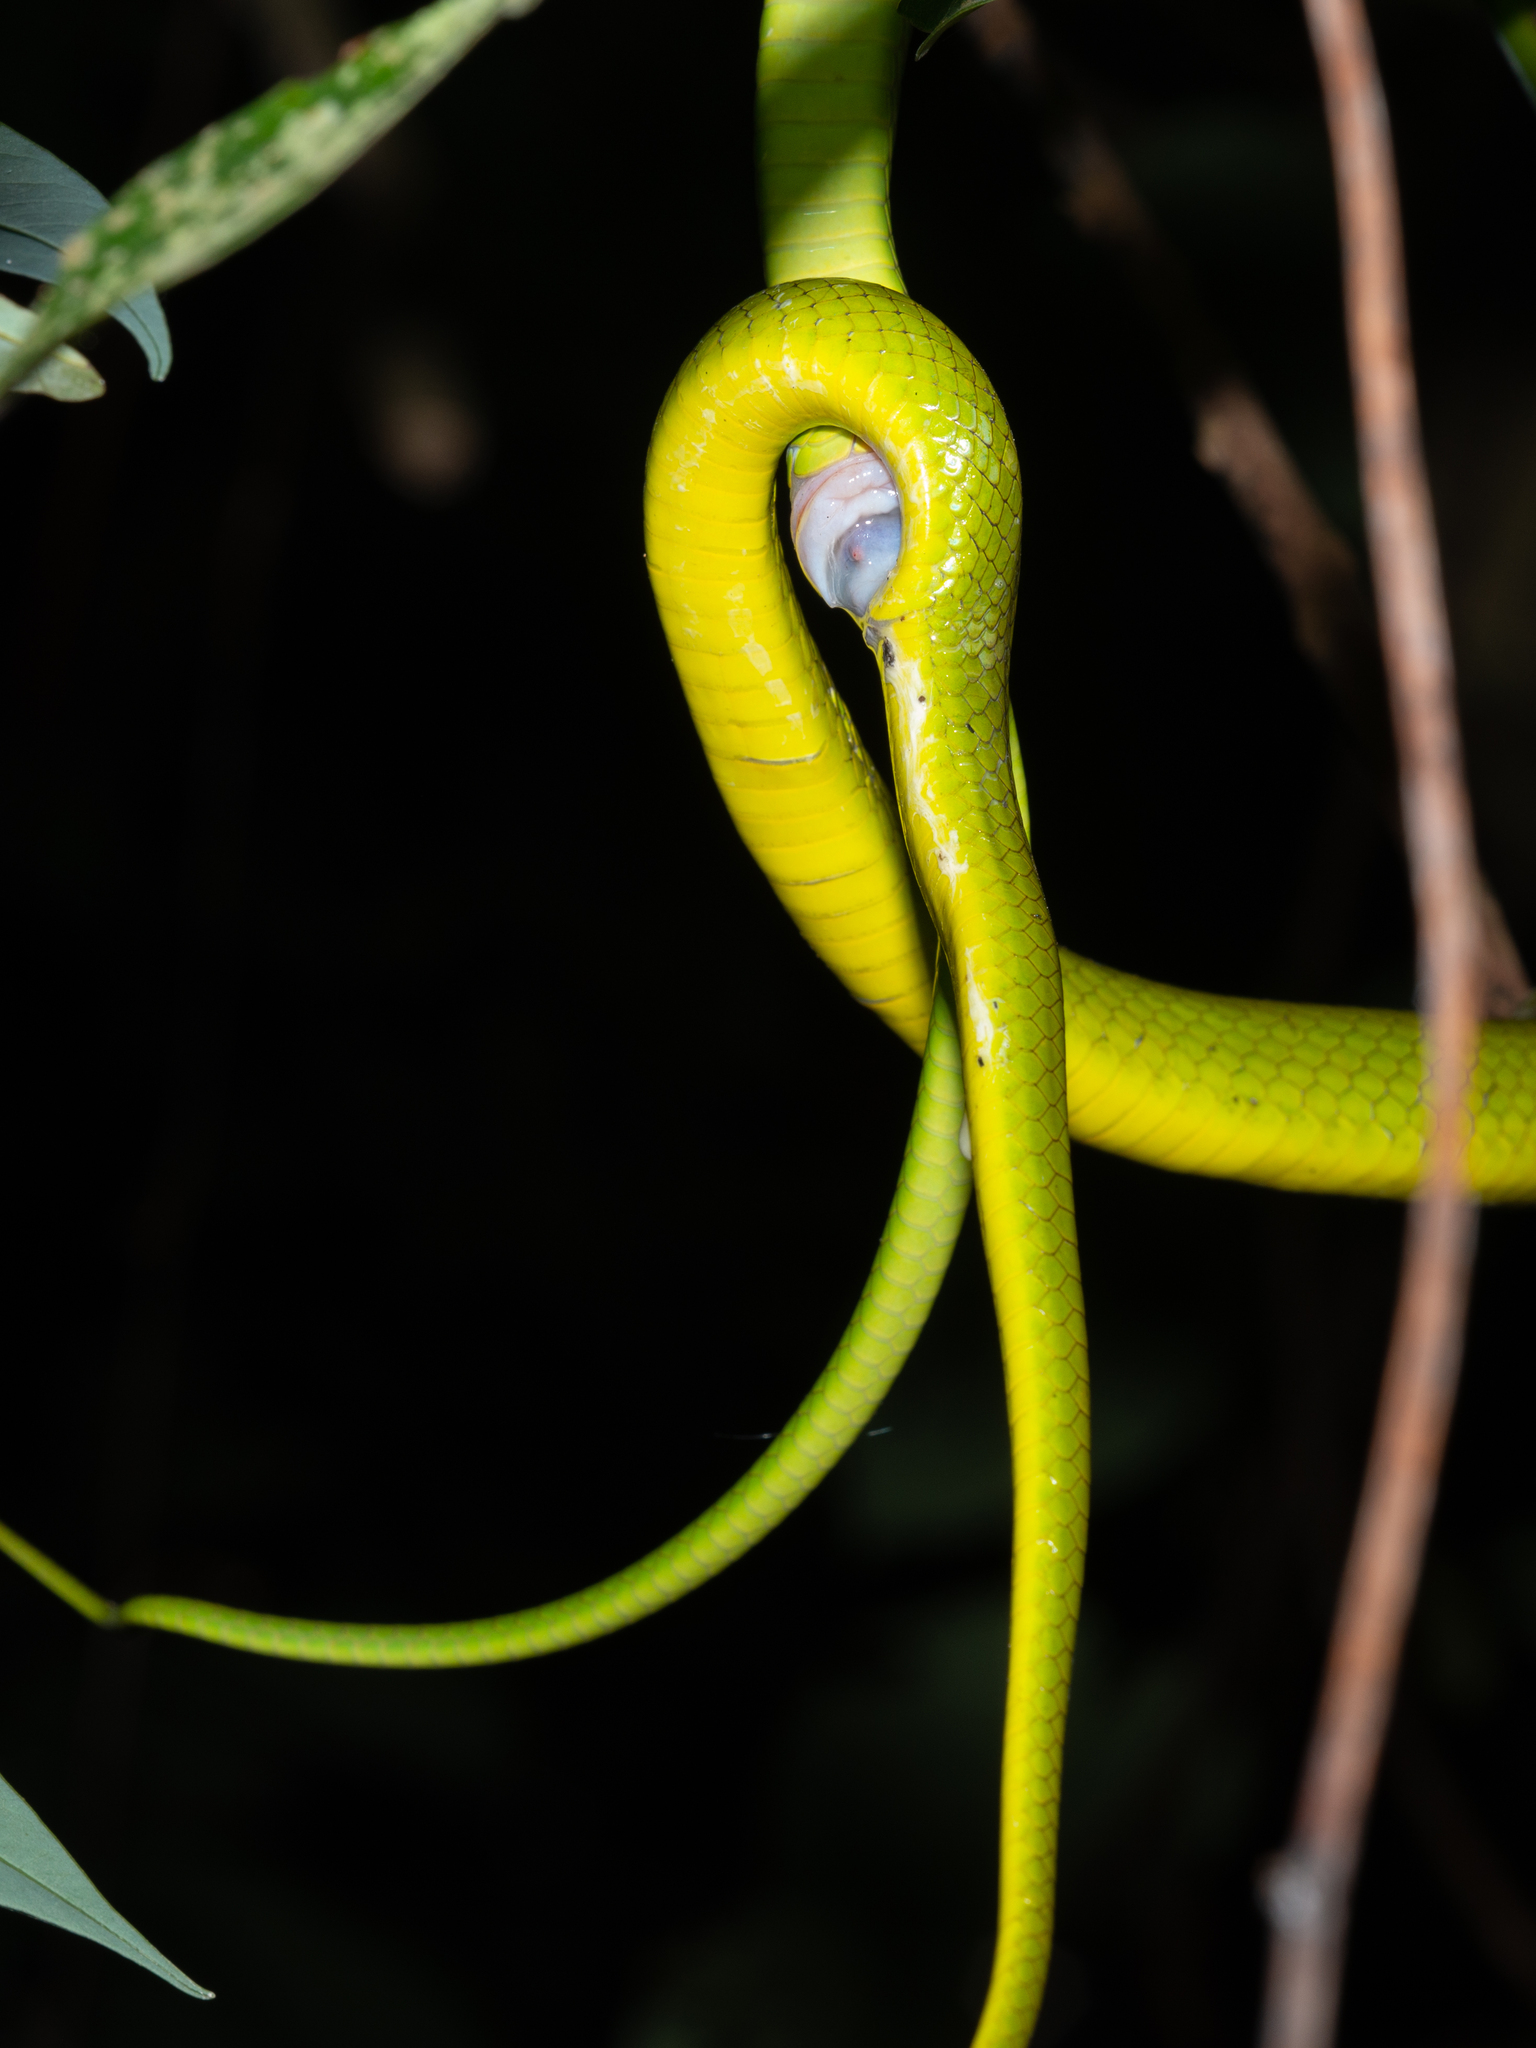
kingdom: Animalia
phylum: Chordata
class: Squamata
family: Colubridae
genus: Ptyas
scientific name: Ptyas major
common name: Chinese green snake
